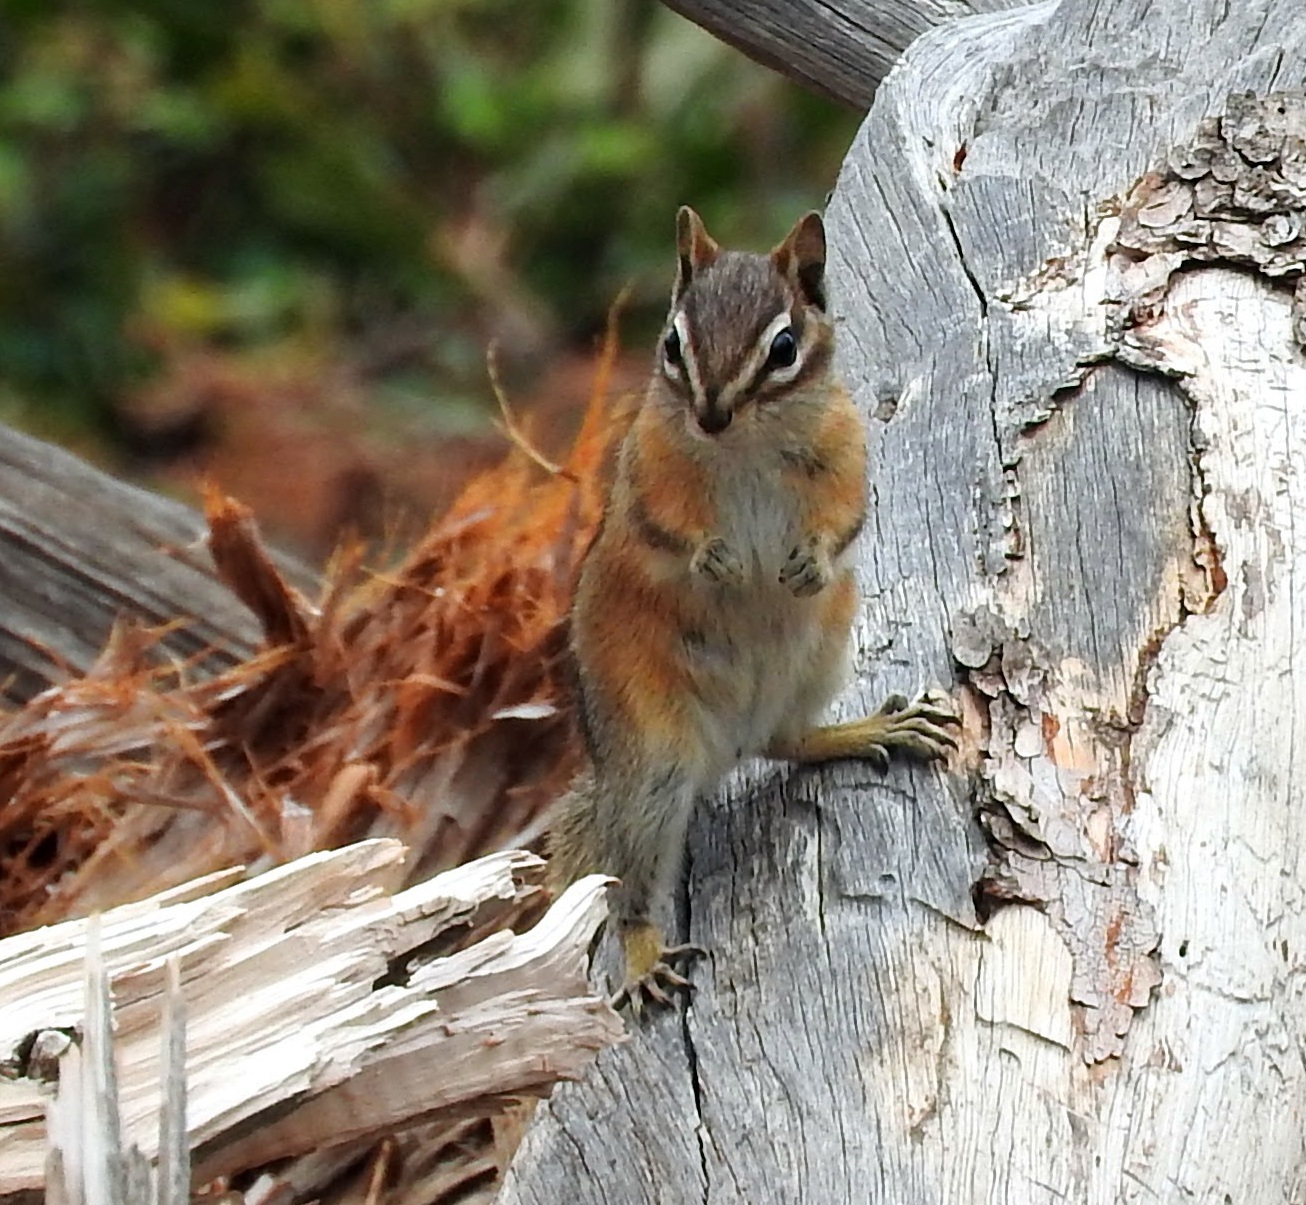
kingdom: Animalia
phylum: Chordata
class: Mammalia
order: Rodentia
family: Sciuridae
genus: Tamias
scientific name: Tamias minimus
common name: Least chipmunk
